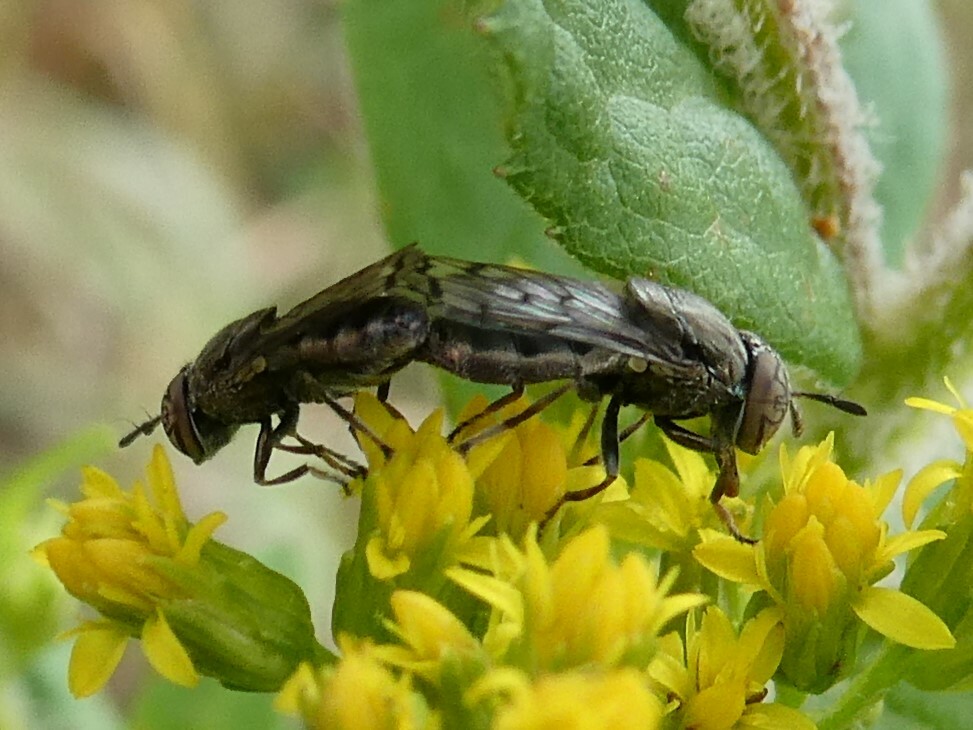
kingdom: Animalia
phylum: Arthropoda
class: Insecta
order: Diptera
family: Syrphidae
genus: Orthonevra
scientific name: Orthonevra nitida
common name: Wavy mucksucker
